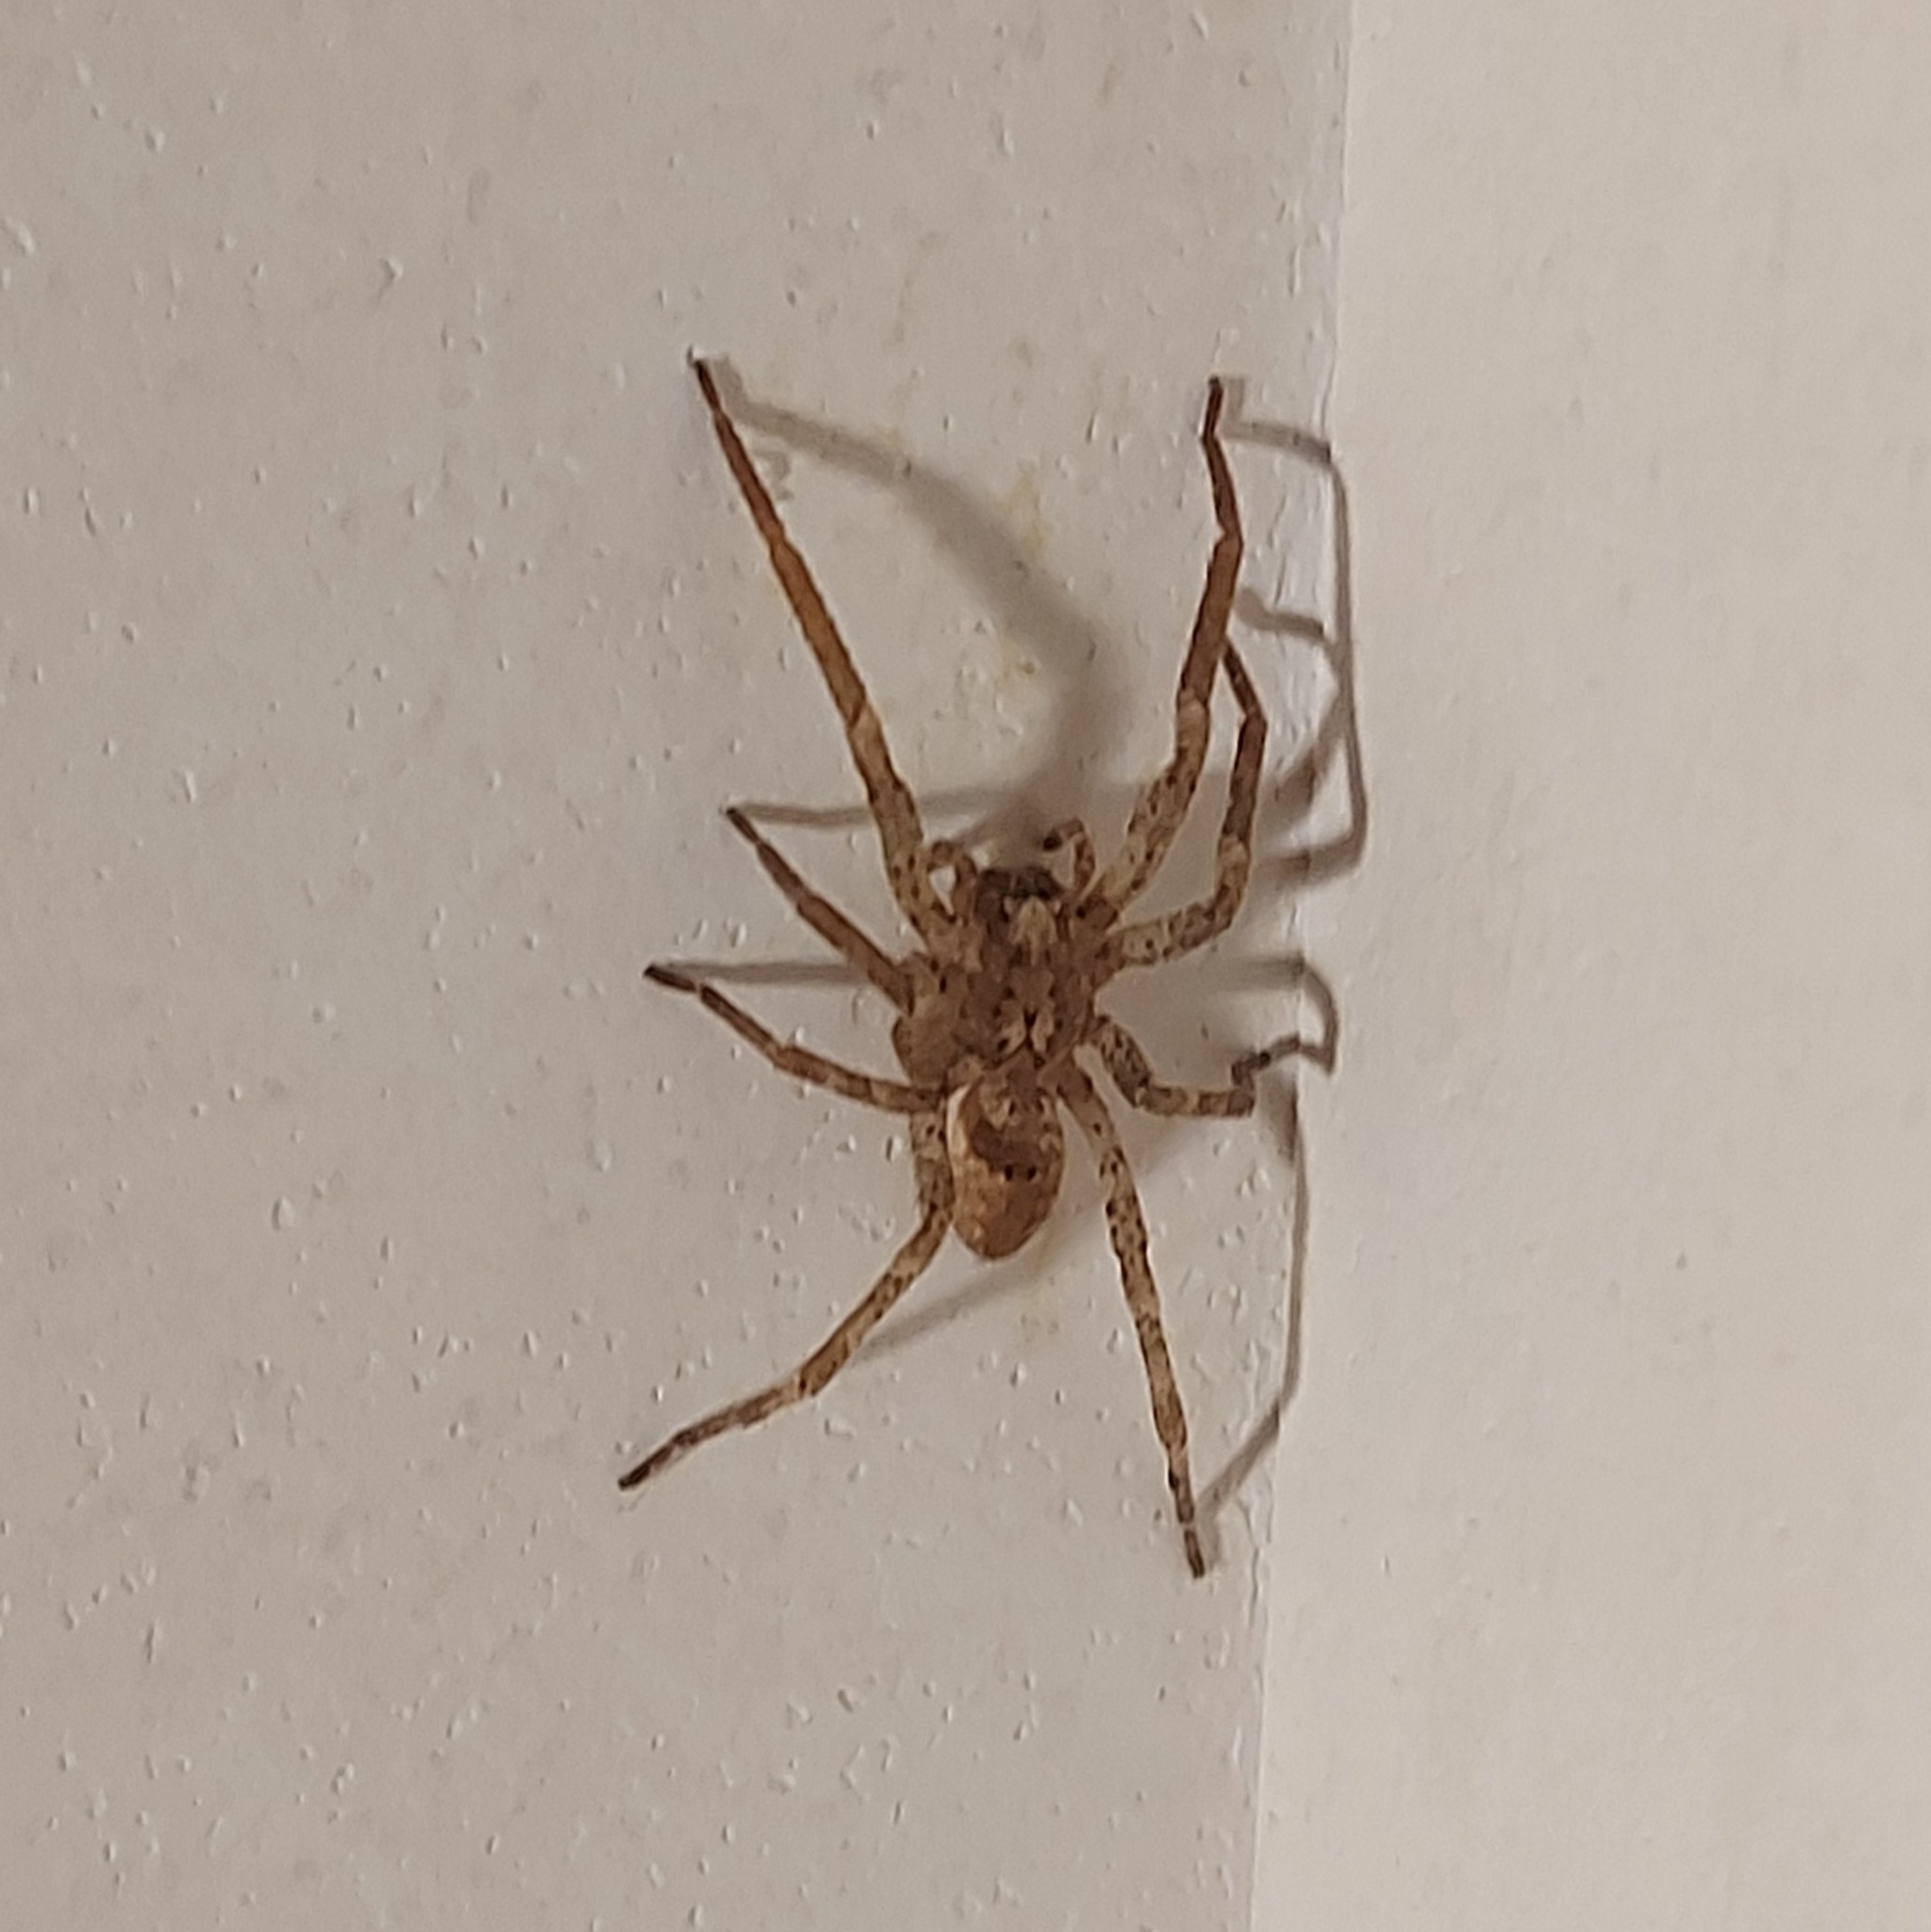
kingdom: Animalia
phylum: Arthropoda
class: Arachnida
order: Araneae
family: Zoropsidae
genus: Zoropsis
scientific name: Zoropsis spinimana
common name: Zoropsid spider
